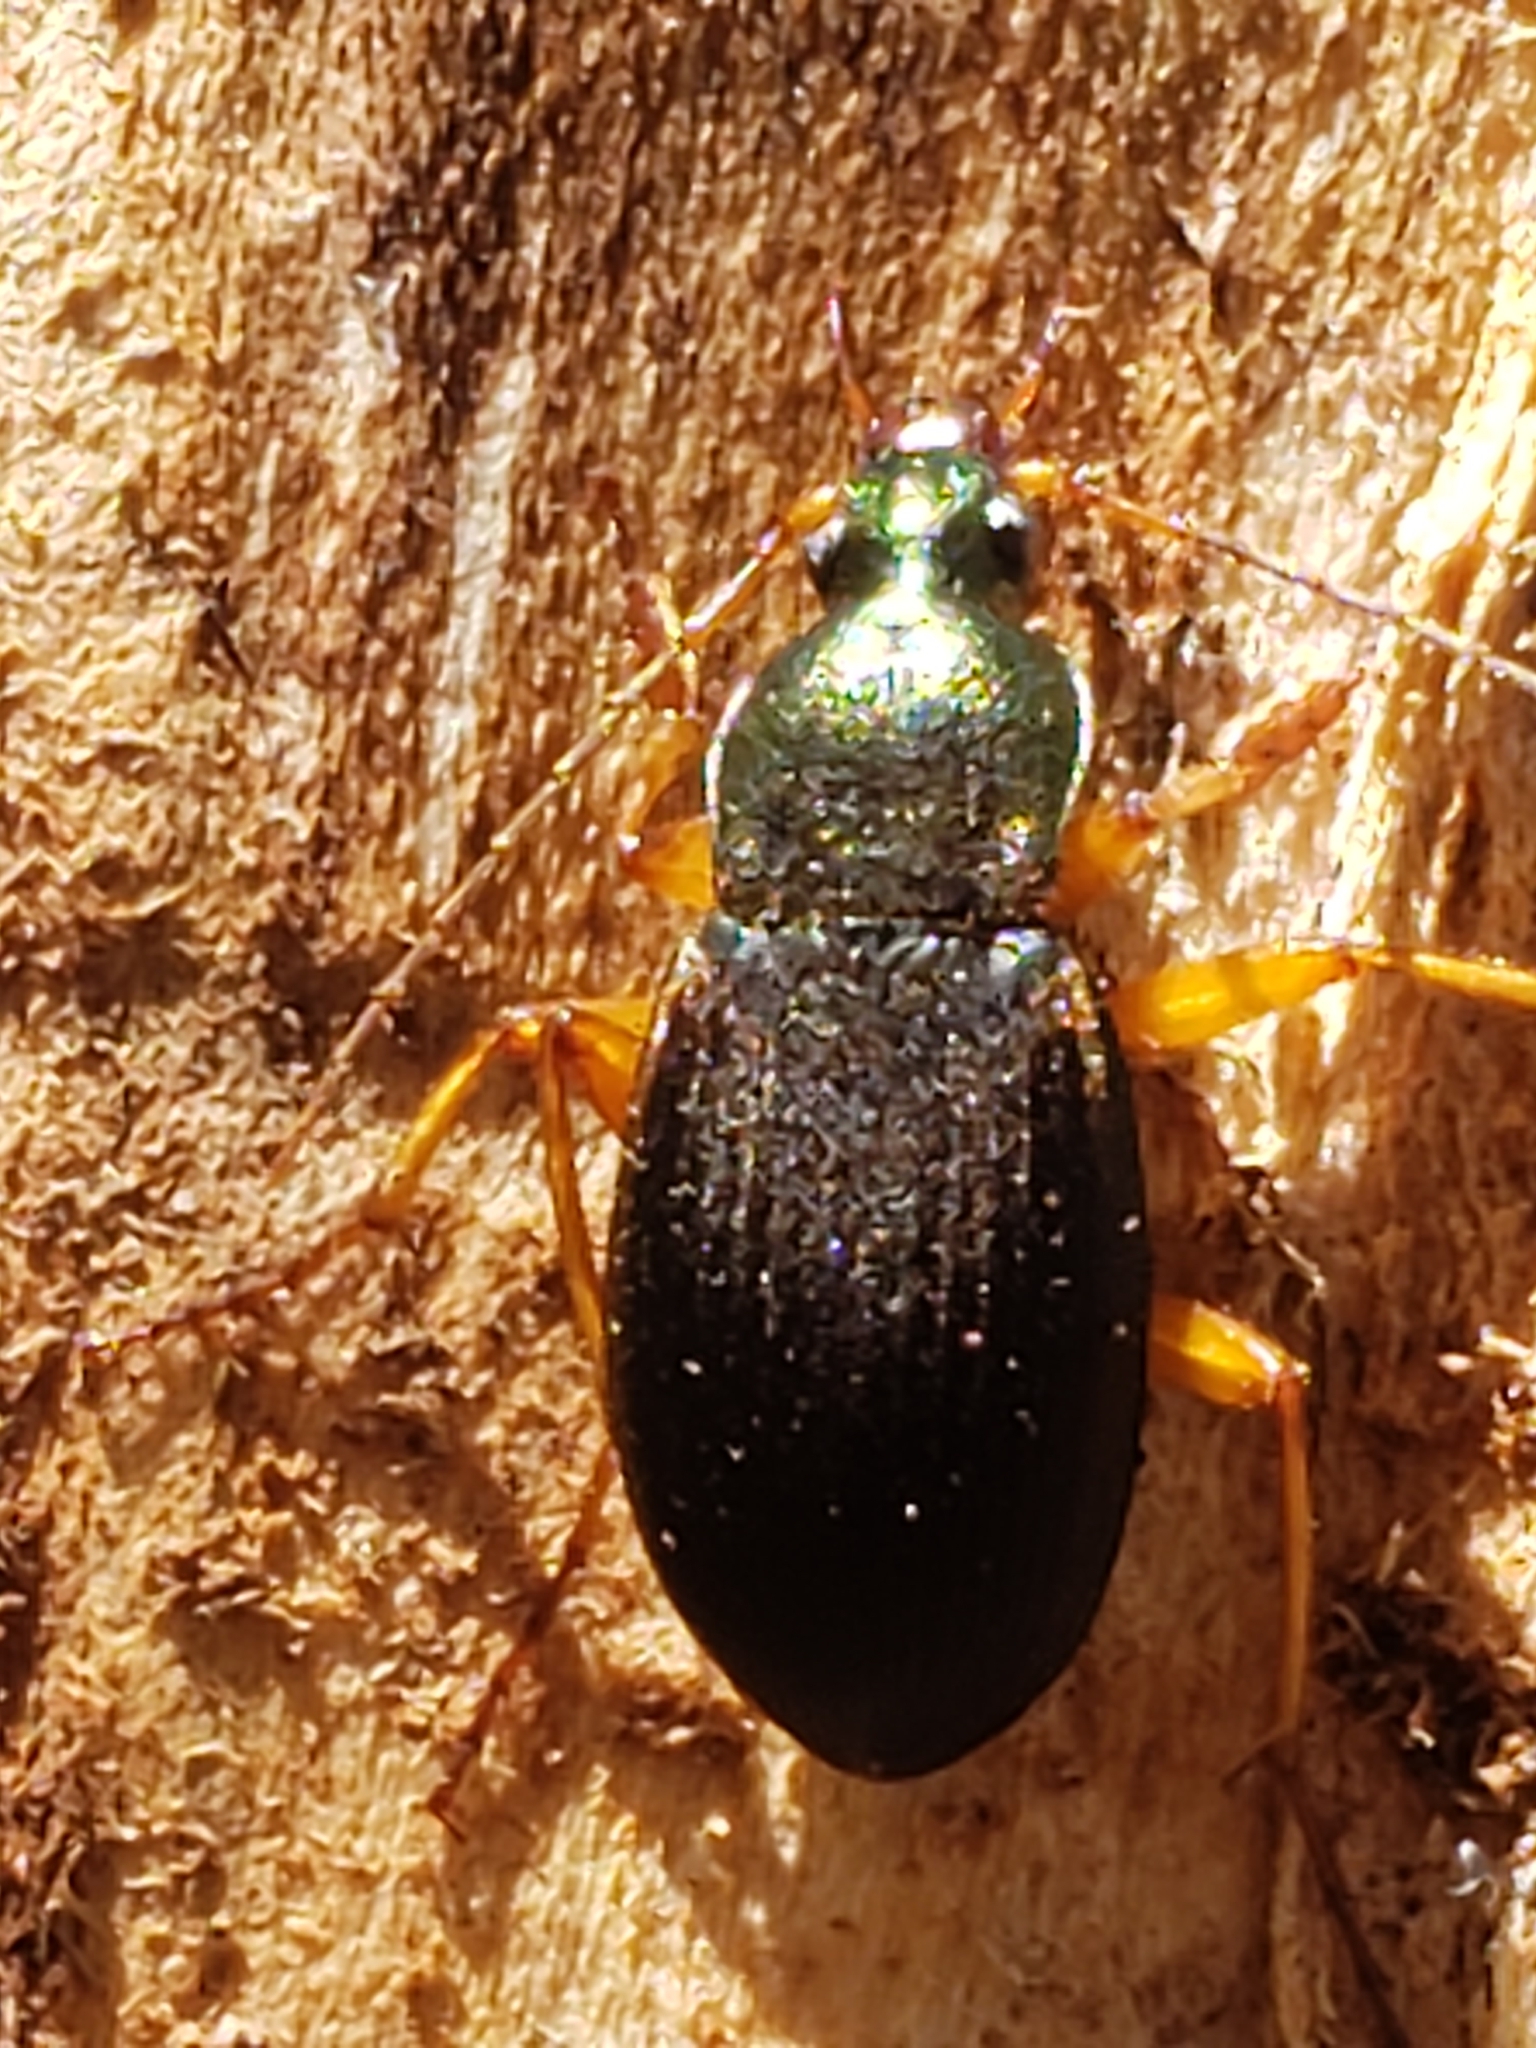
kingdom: Animalia
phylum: Arthropoda
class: Insecta
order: Coleoptera
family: Carabidae
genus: Chlaenius
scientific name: Chlaenius aestivus
